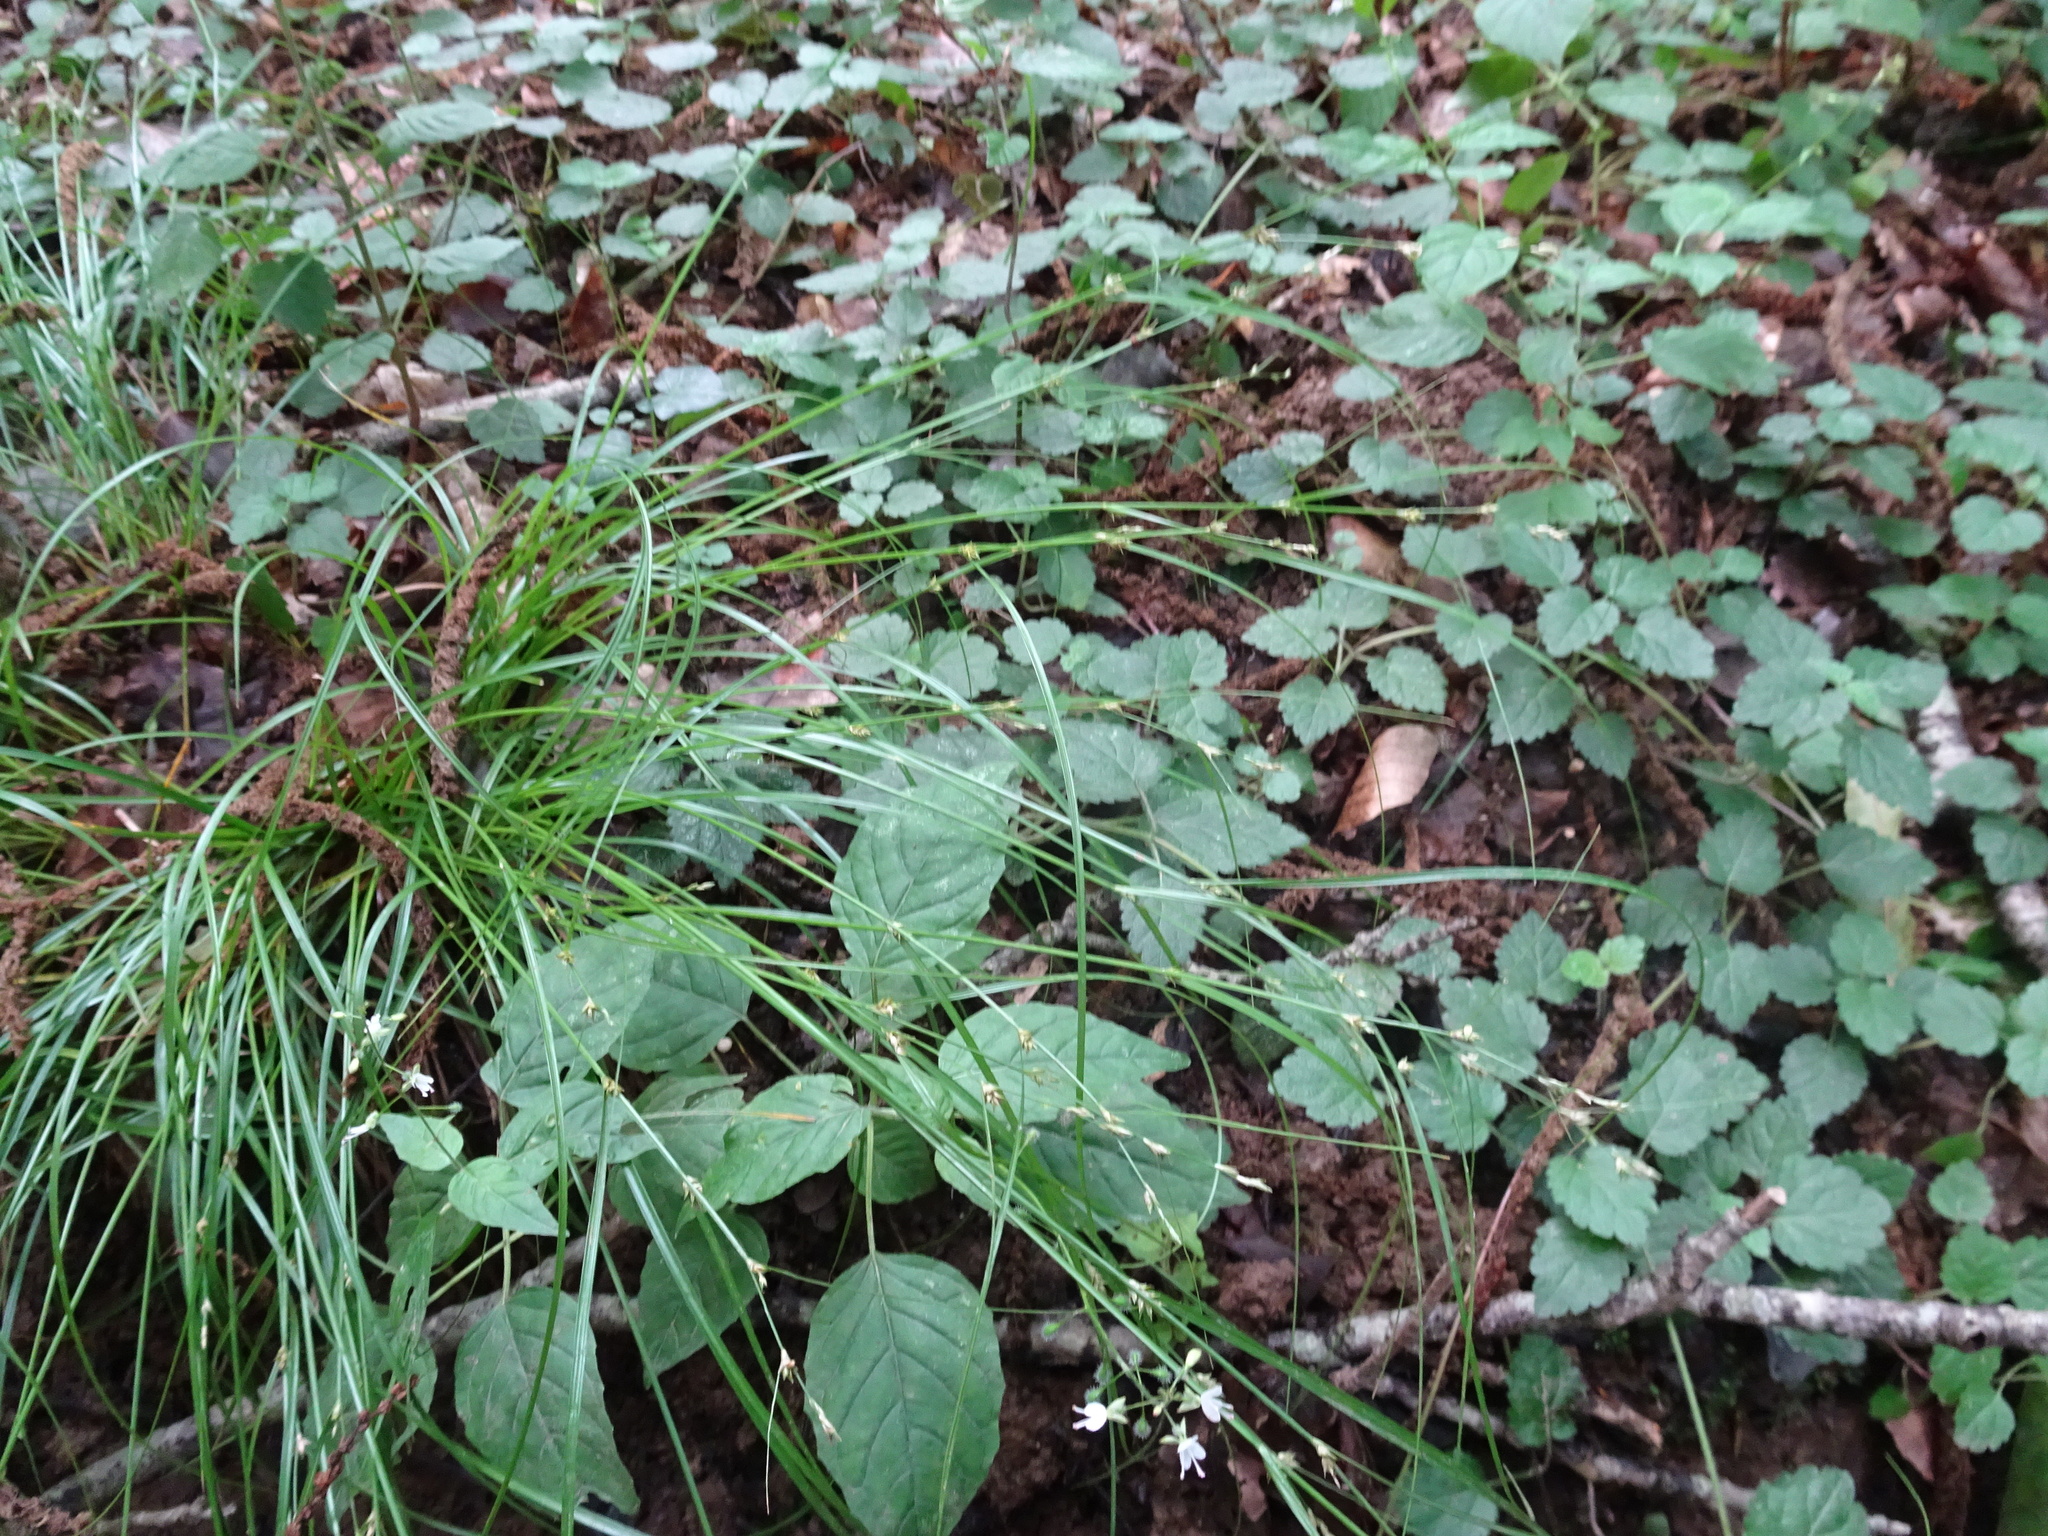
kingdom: Plantae
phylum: Tracheophyta
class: Liliopsida
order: Poales
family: Cyperaceae
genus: Carex
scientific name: Carex remota
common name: Remote sedge
